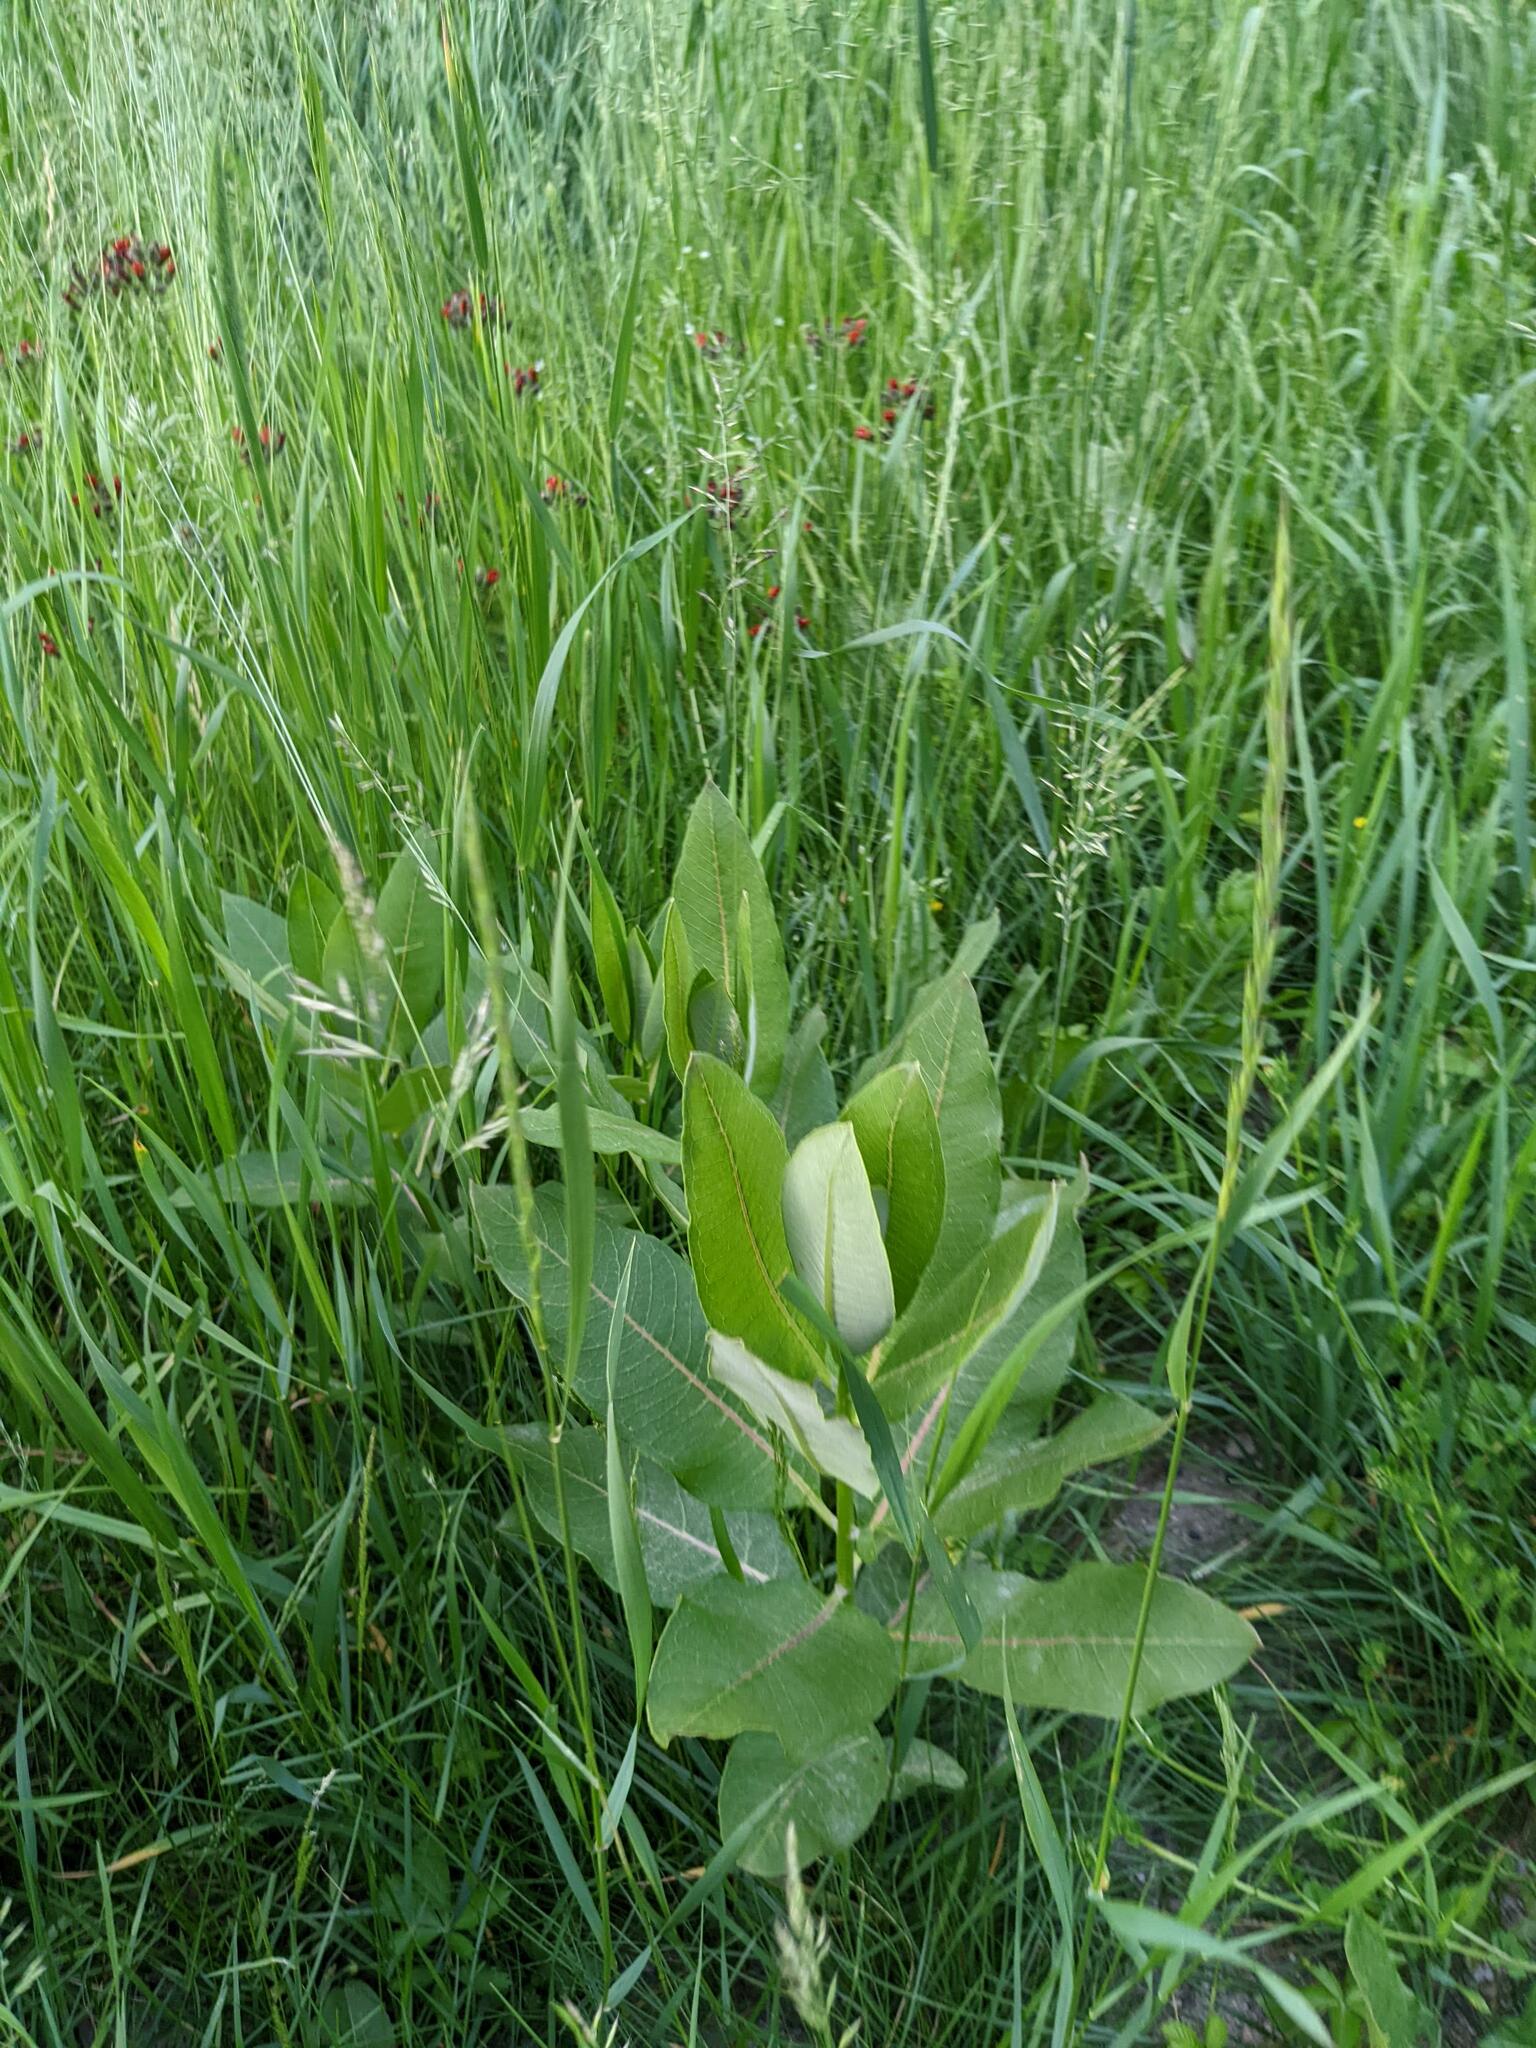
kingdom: Plantae
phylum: Tracheophyta
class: Magnoliopsida
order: Gentianales
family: Apocynaceae
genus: Asclepias
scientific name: Asclepias syriaca
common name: Common milkweed
